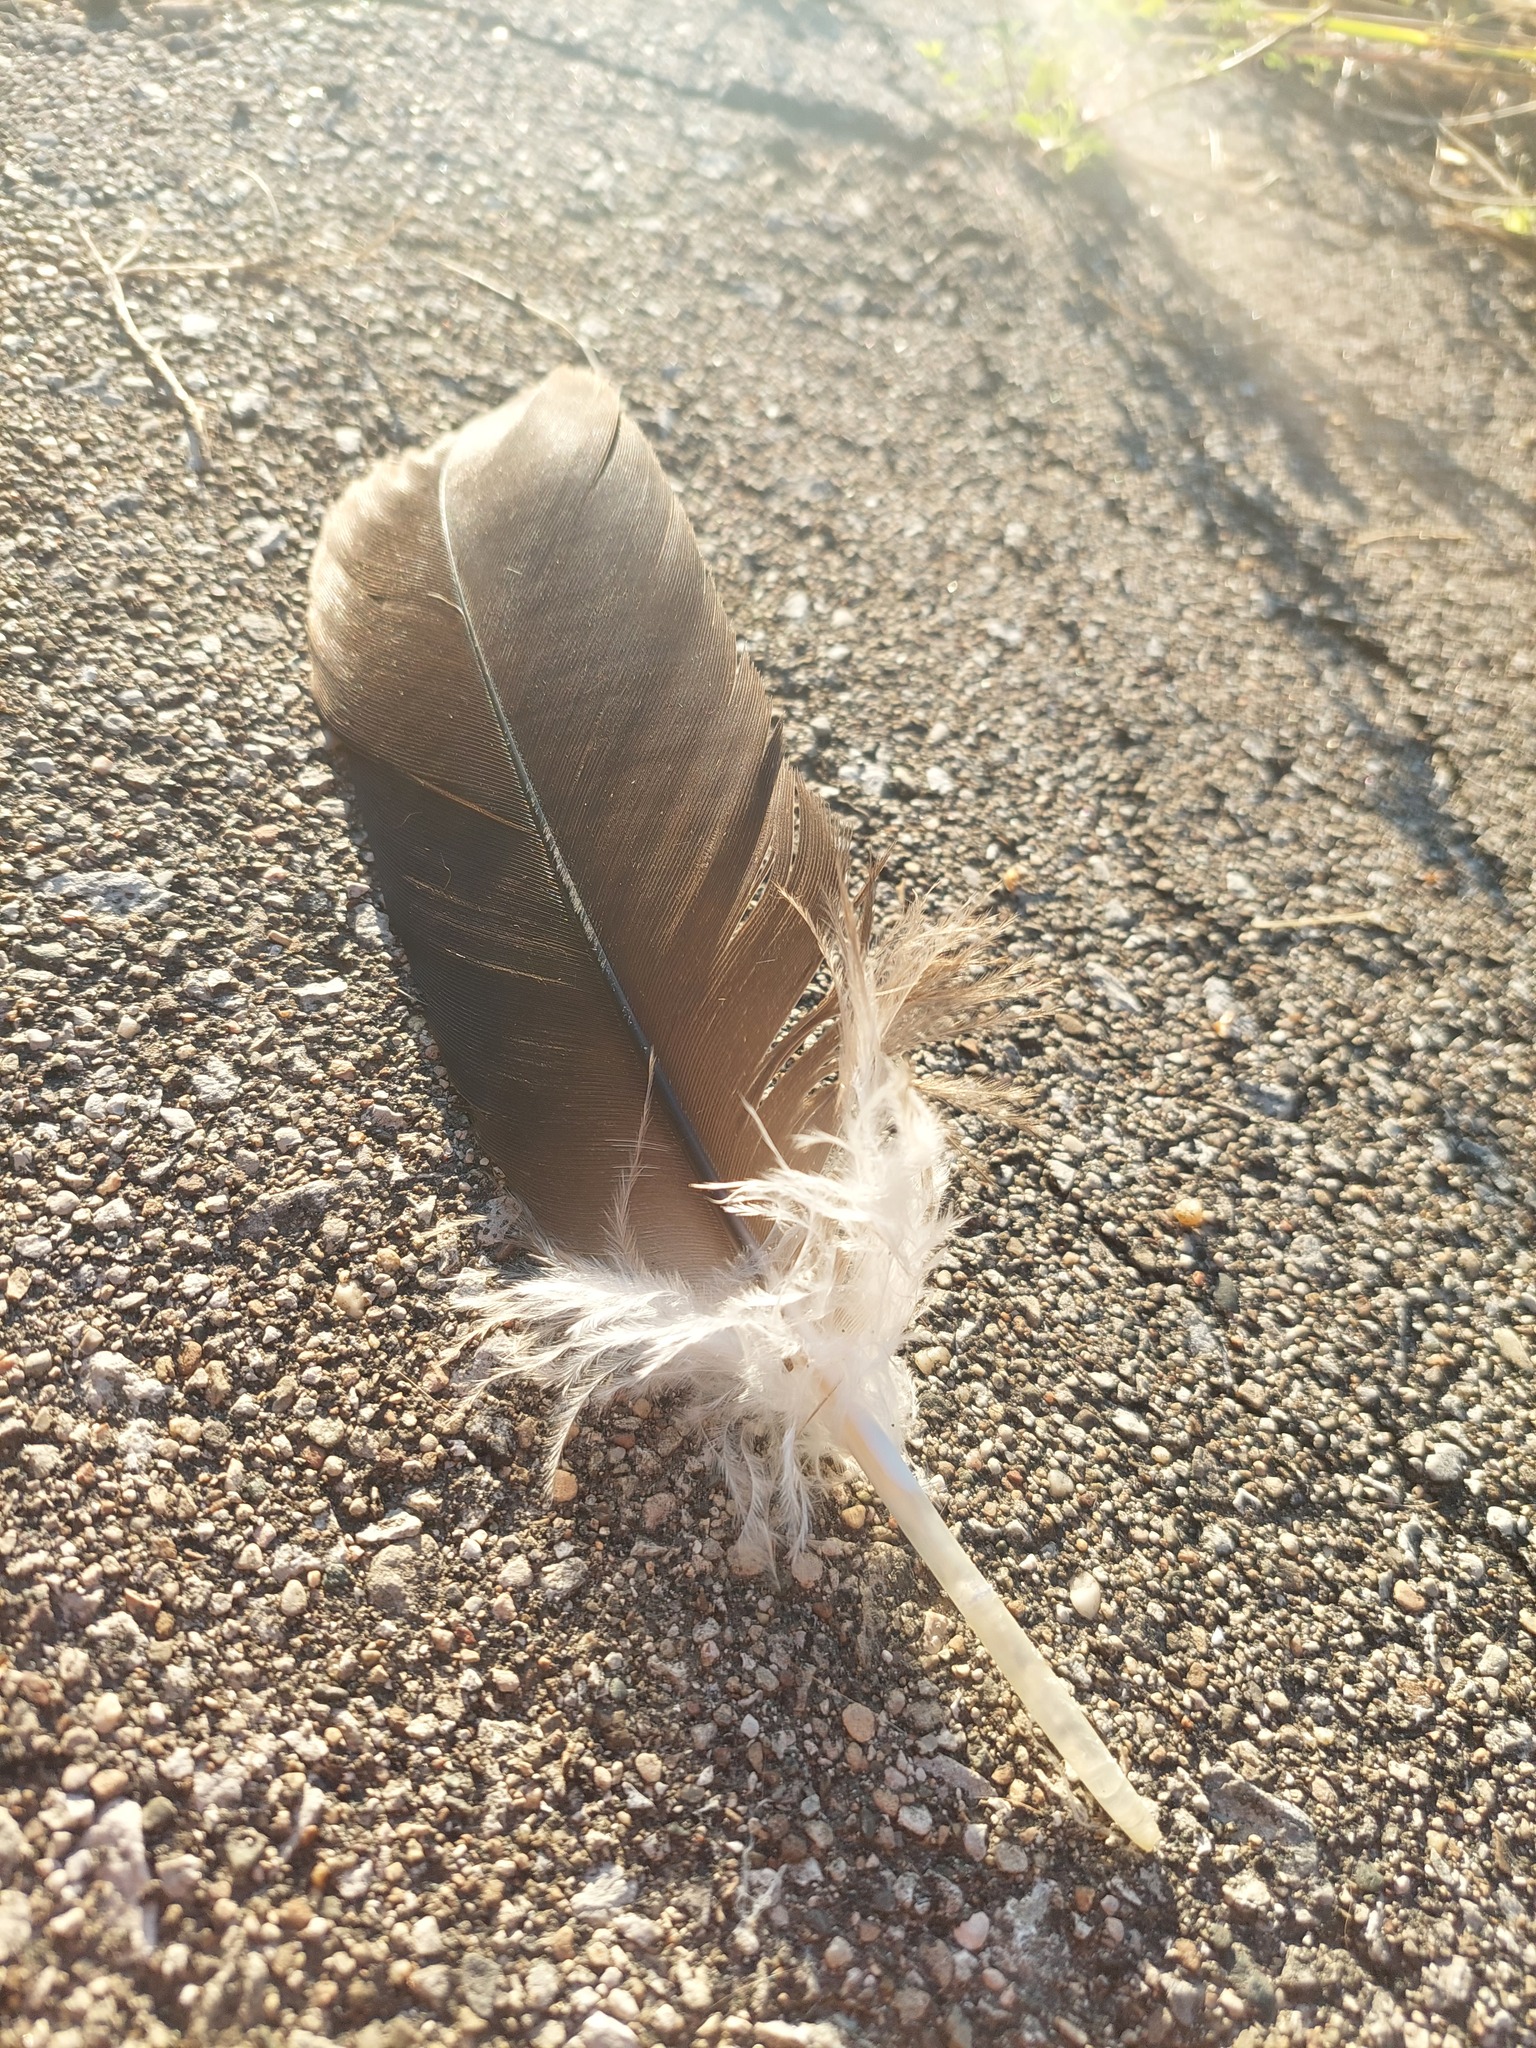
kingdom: Animalia
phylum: Chordata
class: Aves
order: Accipitriformes
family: Cathartidae
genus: Cathartes
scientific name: Cathartes aura
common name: Turkey vulture
